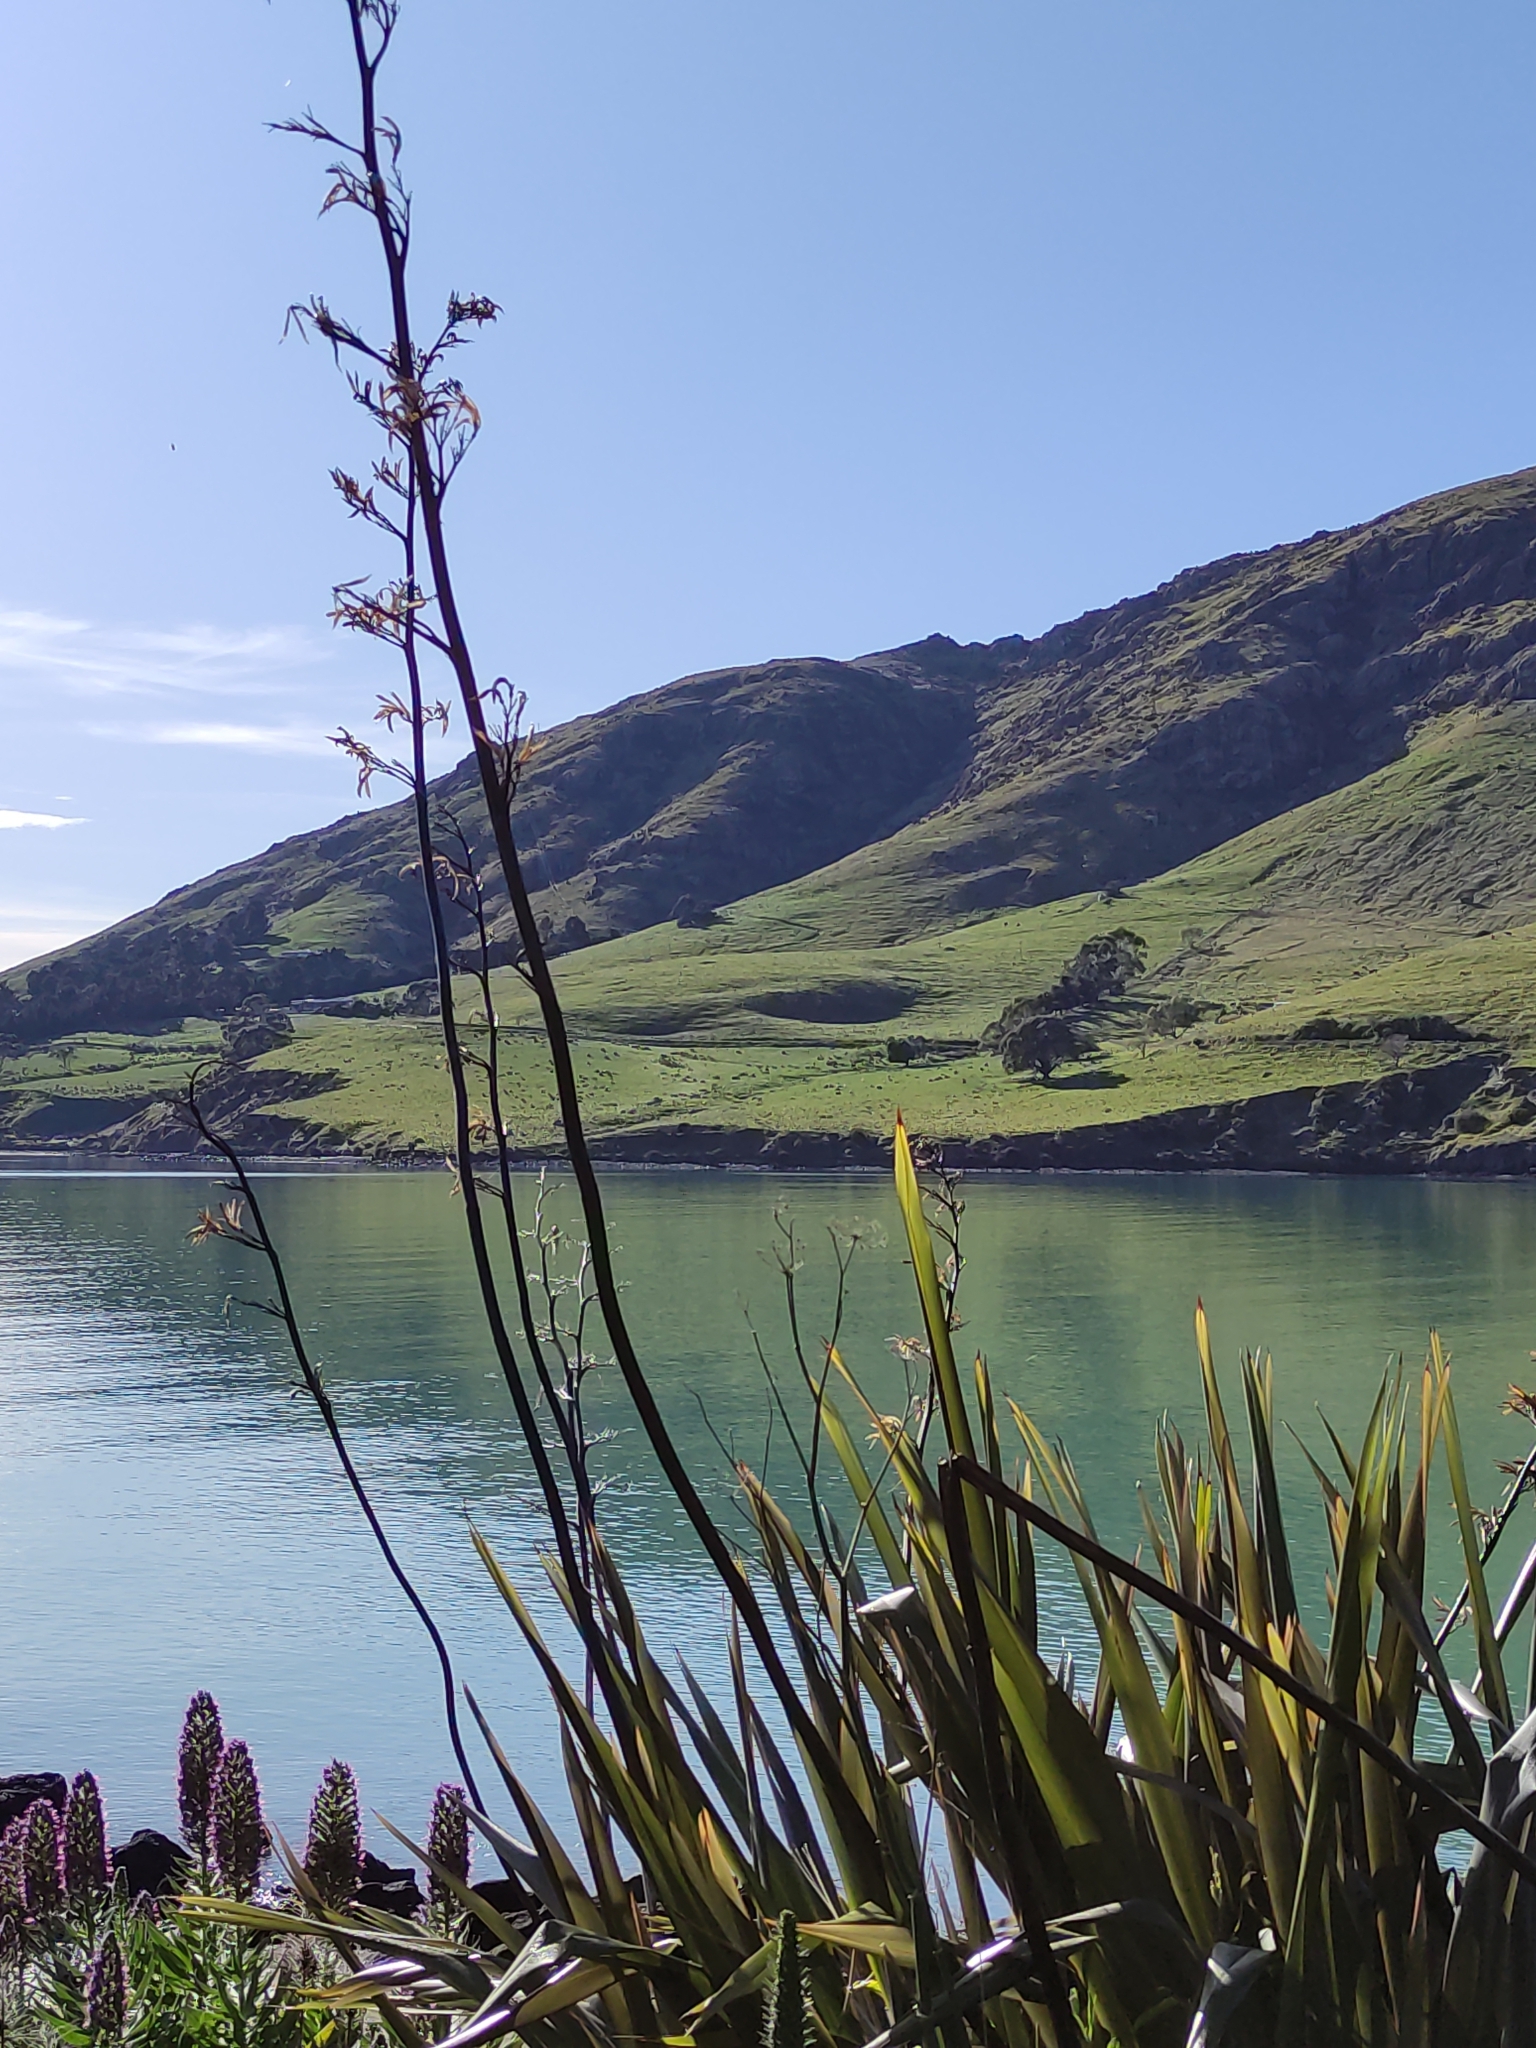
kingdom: Plantae
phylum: Tracheophyta
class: Liliopsida
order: Asparagales
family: Asphodelaceae
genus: Phormium
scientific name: Phormium tenax
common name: New zealand flax
